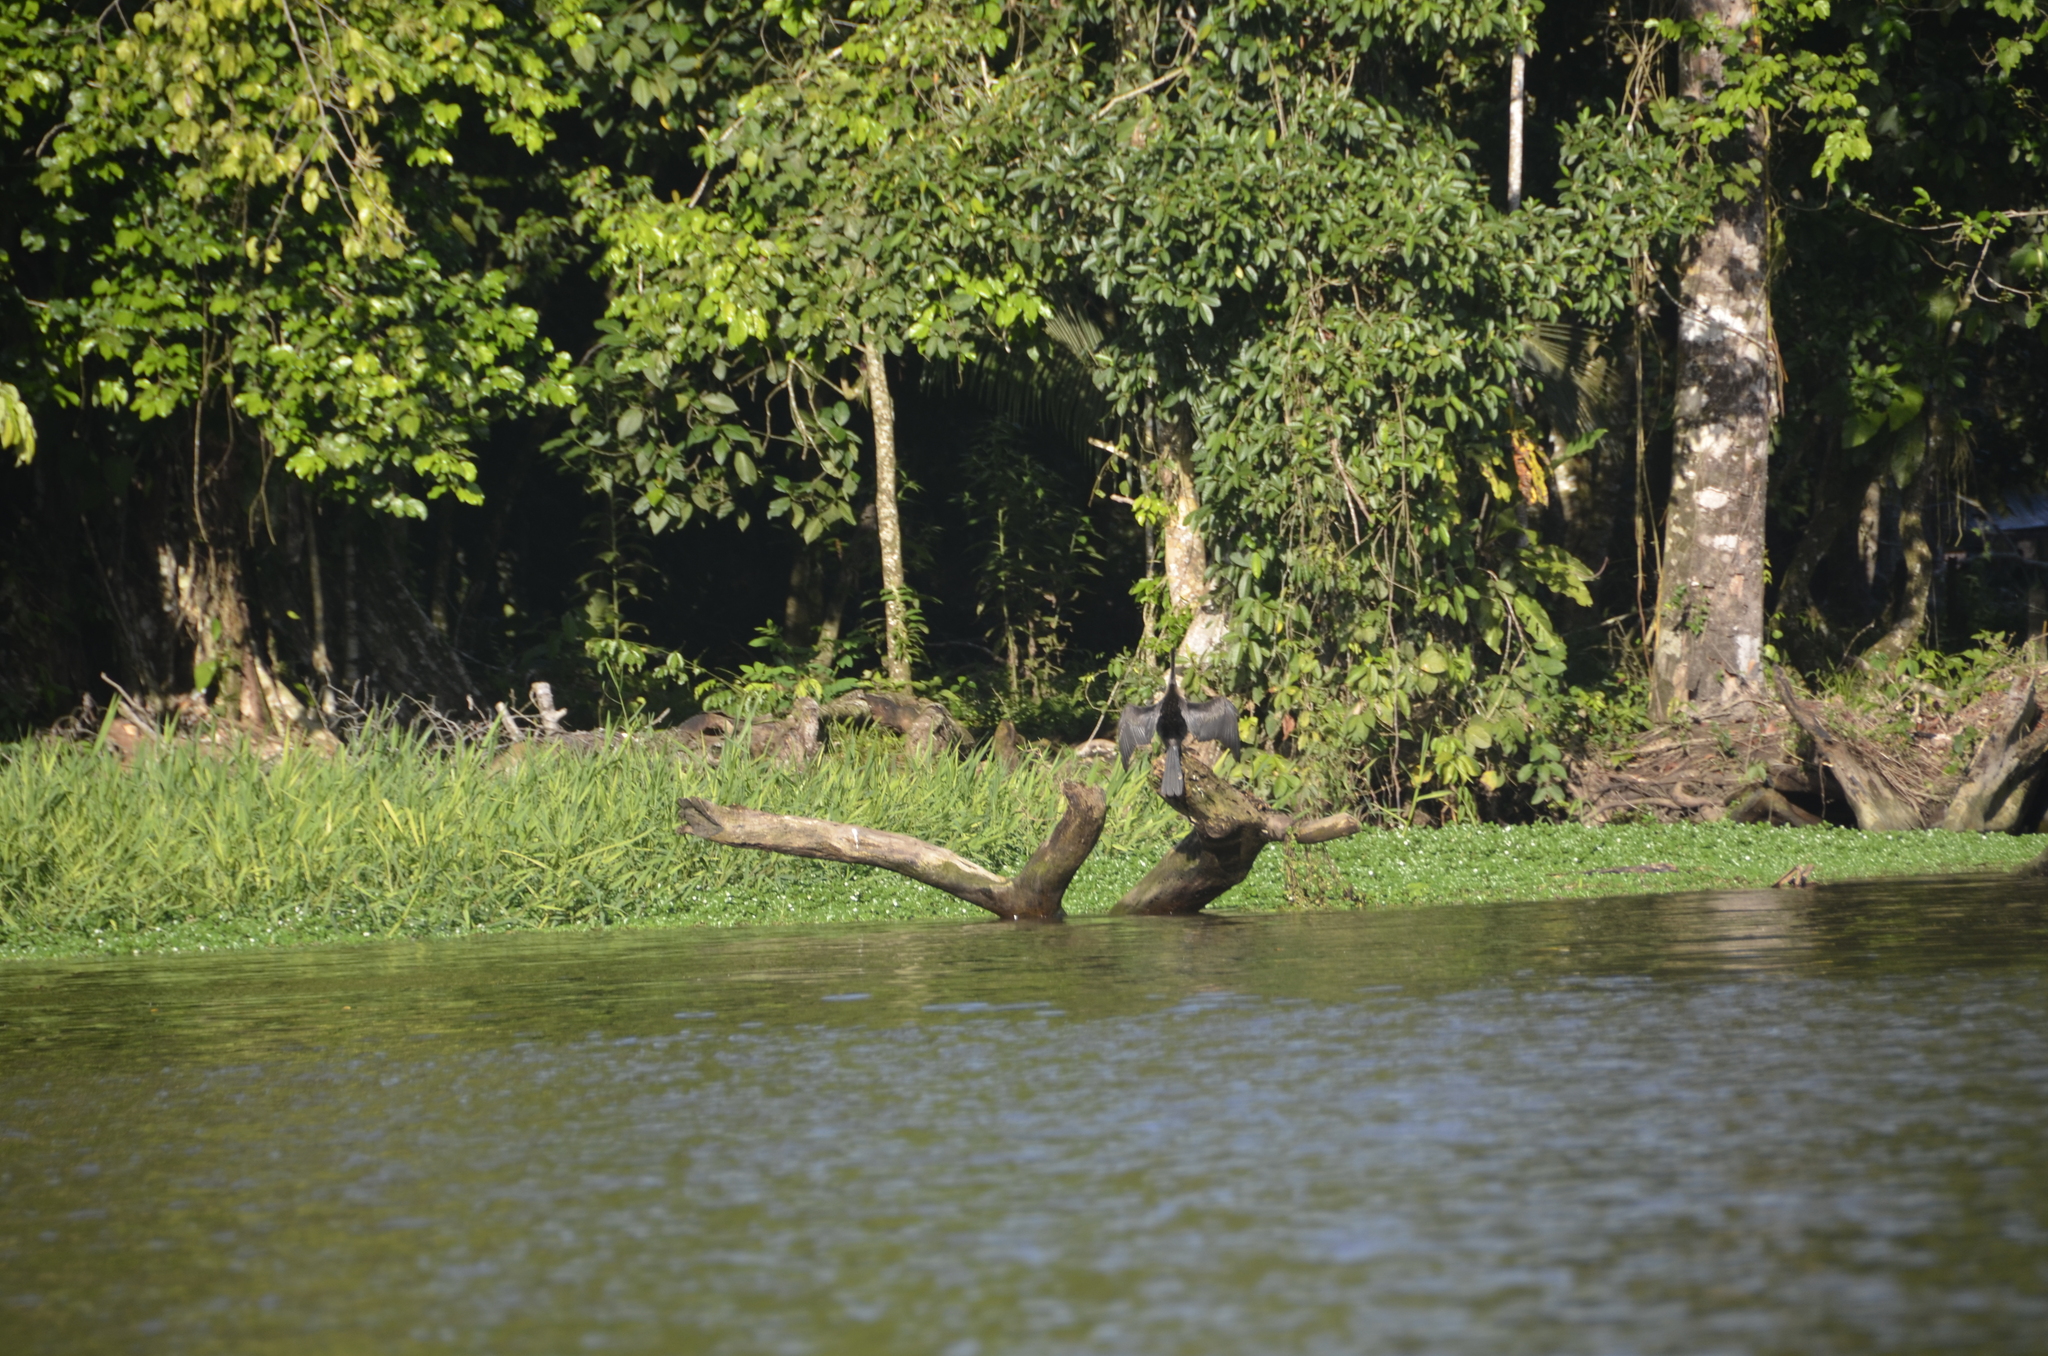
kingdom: Animalia
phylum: Chordata
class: Aves
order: Suliformes
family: Anhingidae
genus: Anhinga
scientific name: Anhinga anhinga
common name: Anhinga
